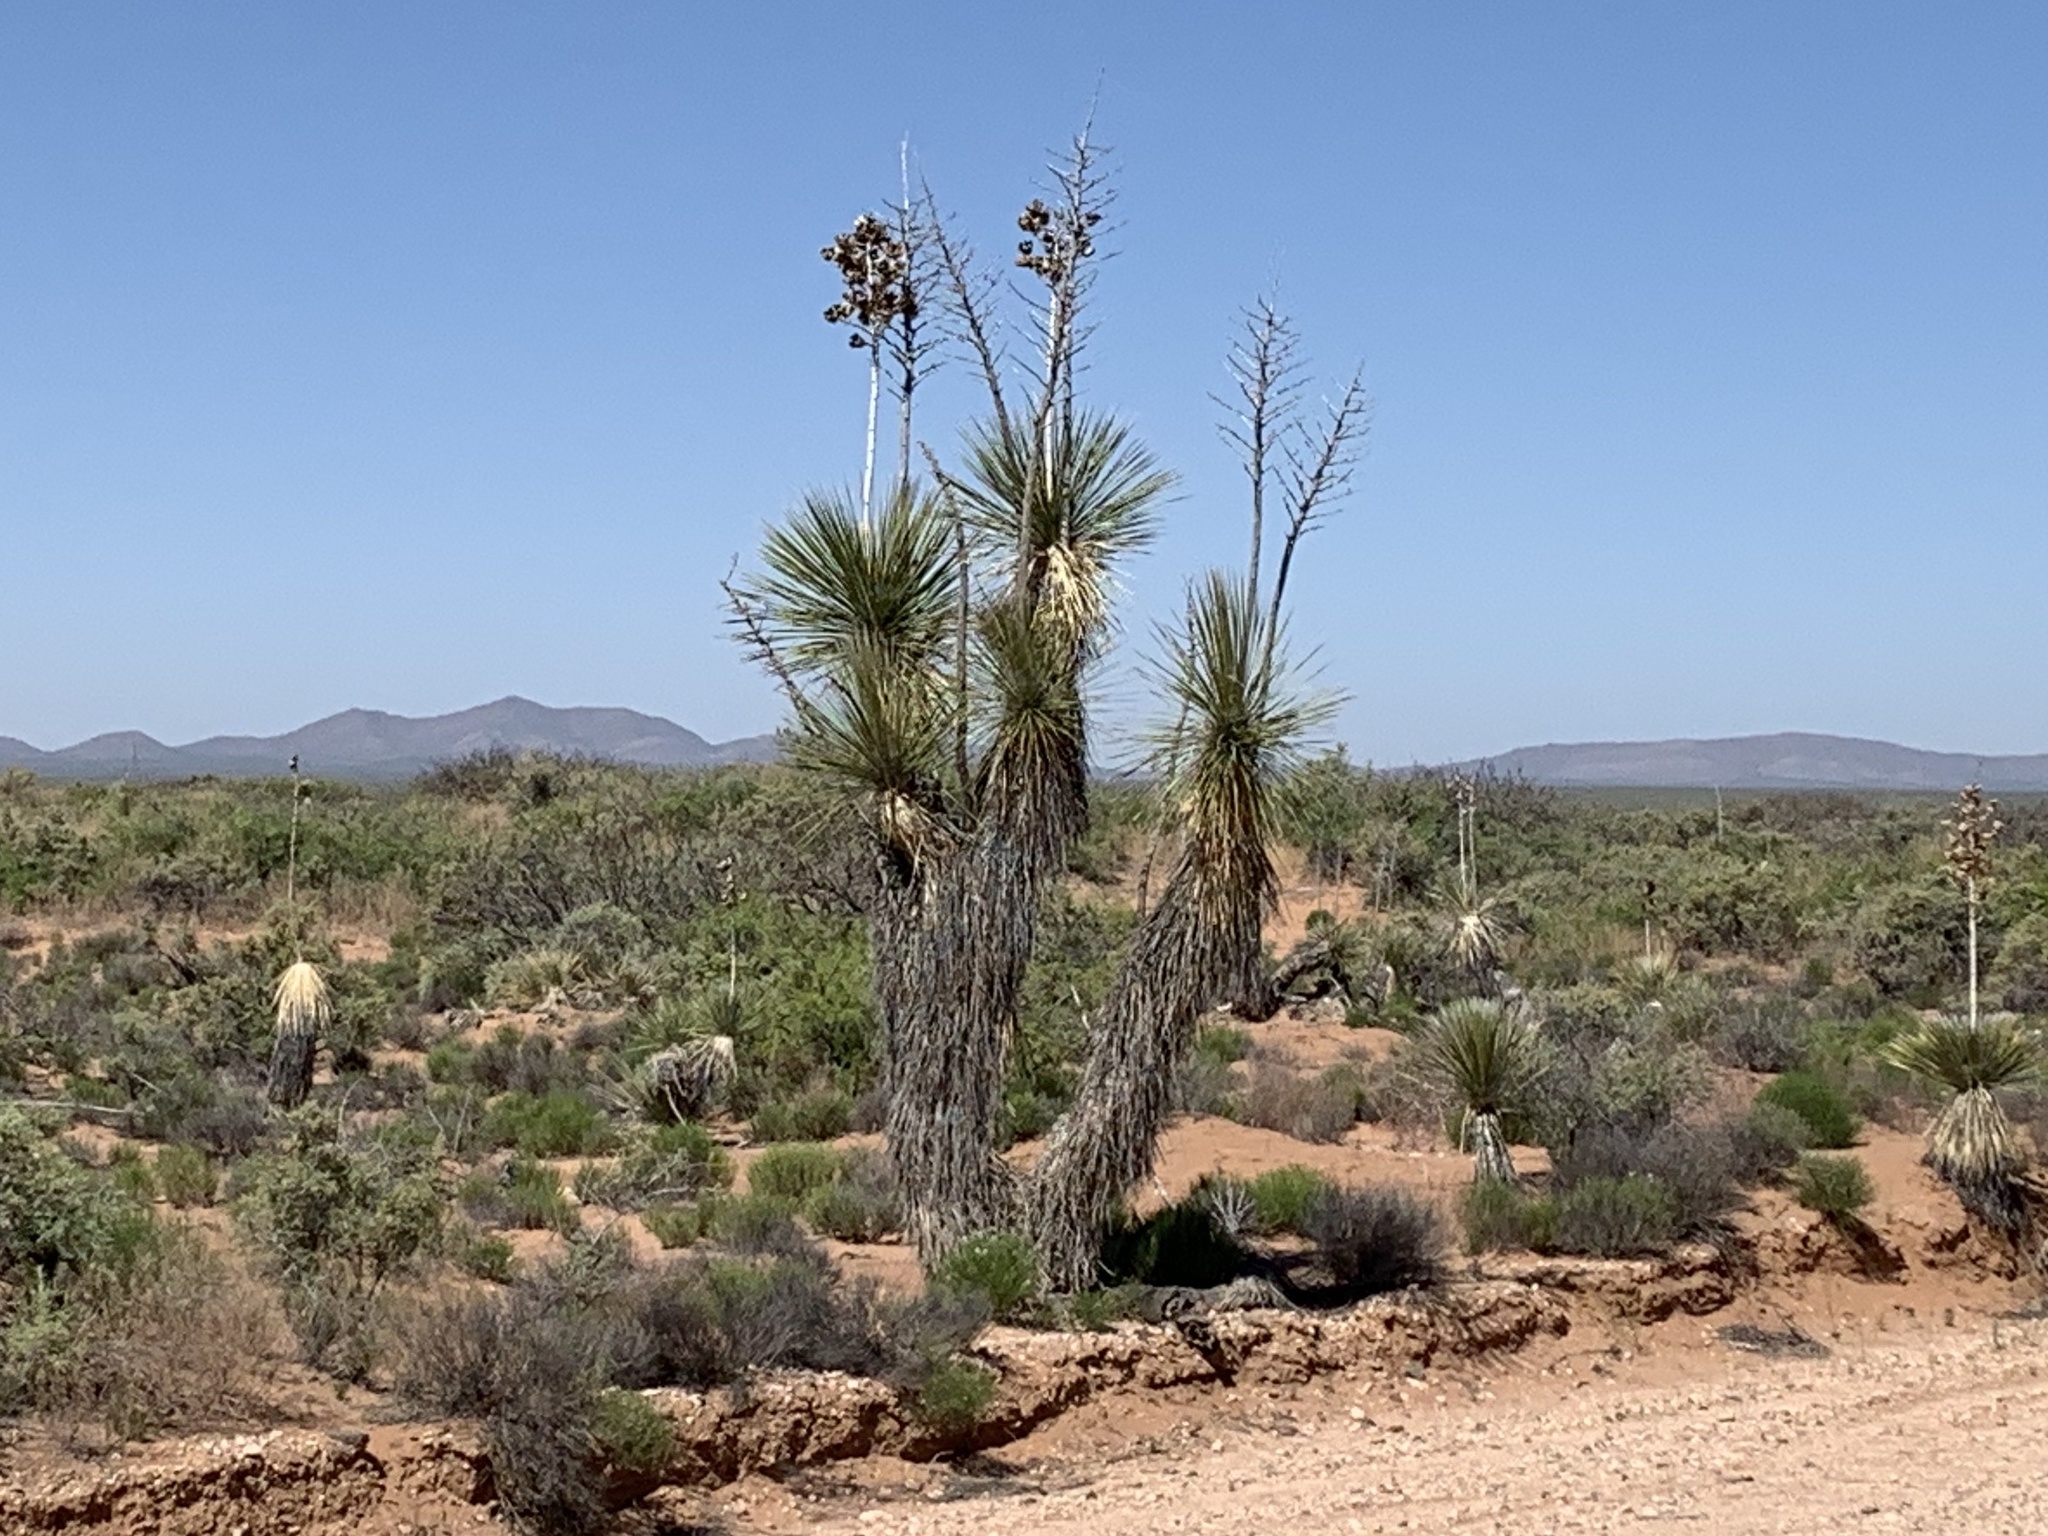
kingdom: Plantae
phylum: Tracheophyta
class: Liliopsida
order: Asparagales
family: Asparagaceae
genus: Yucca
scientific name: Yucca elata
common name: Palmella
